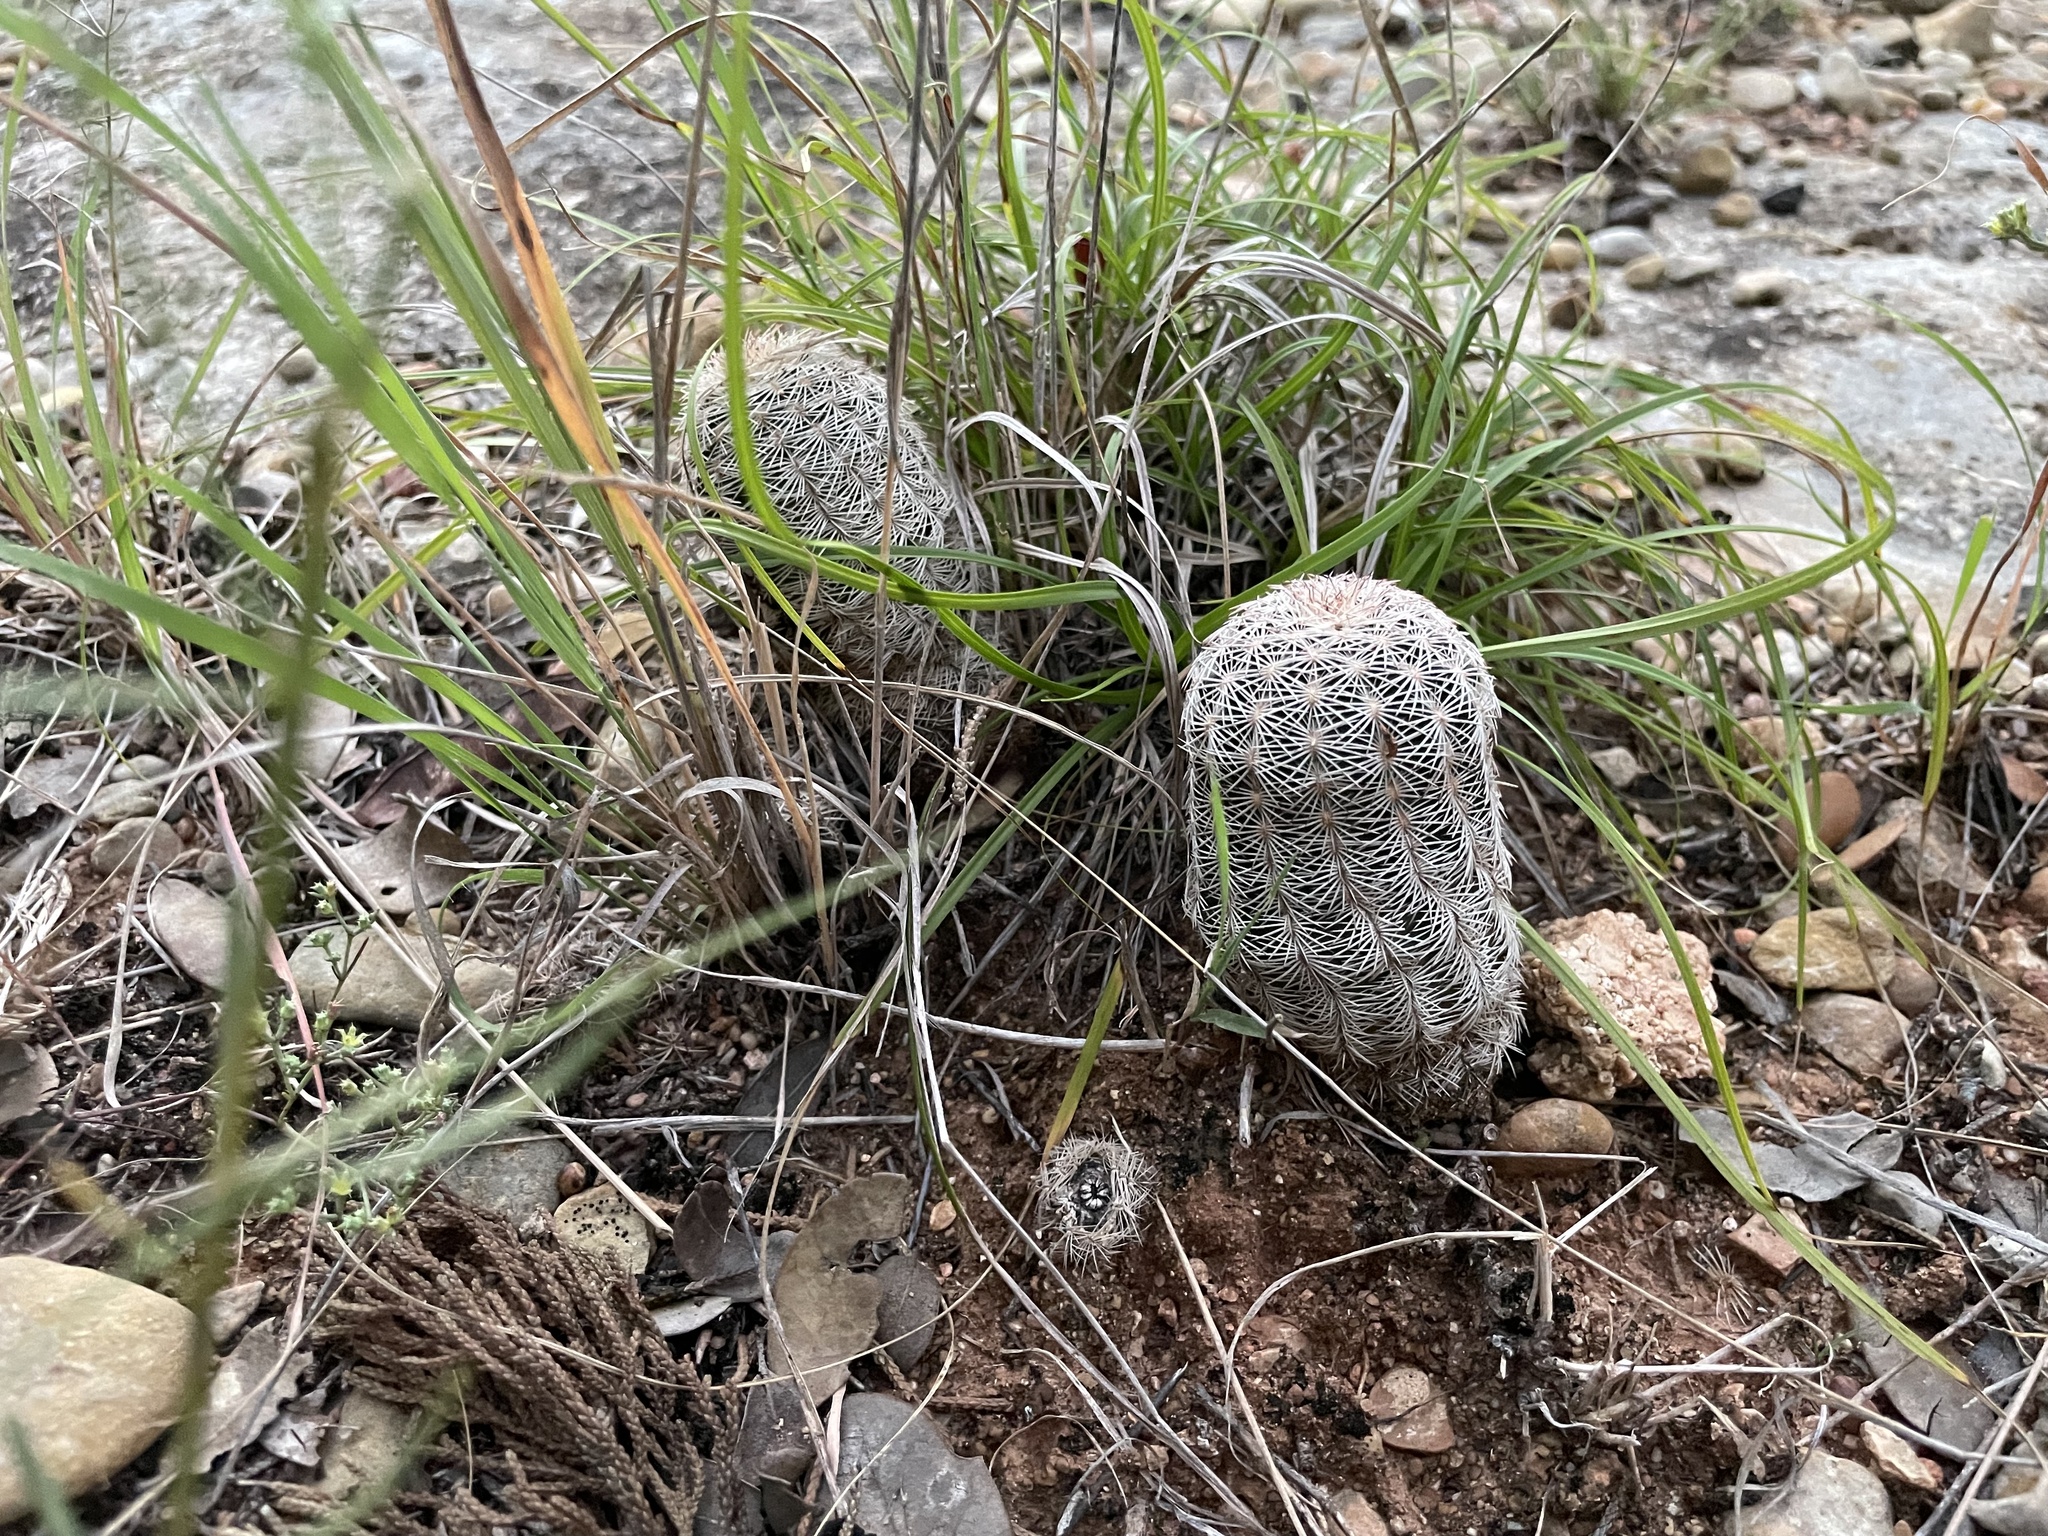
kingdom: Plantae
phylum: Tracheophyta
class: Magnoliopsida
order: Caryophyllales
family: Cactaceae
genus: Echinocereus
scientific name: Echinocereus reichenbachii
